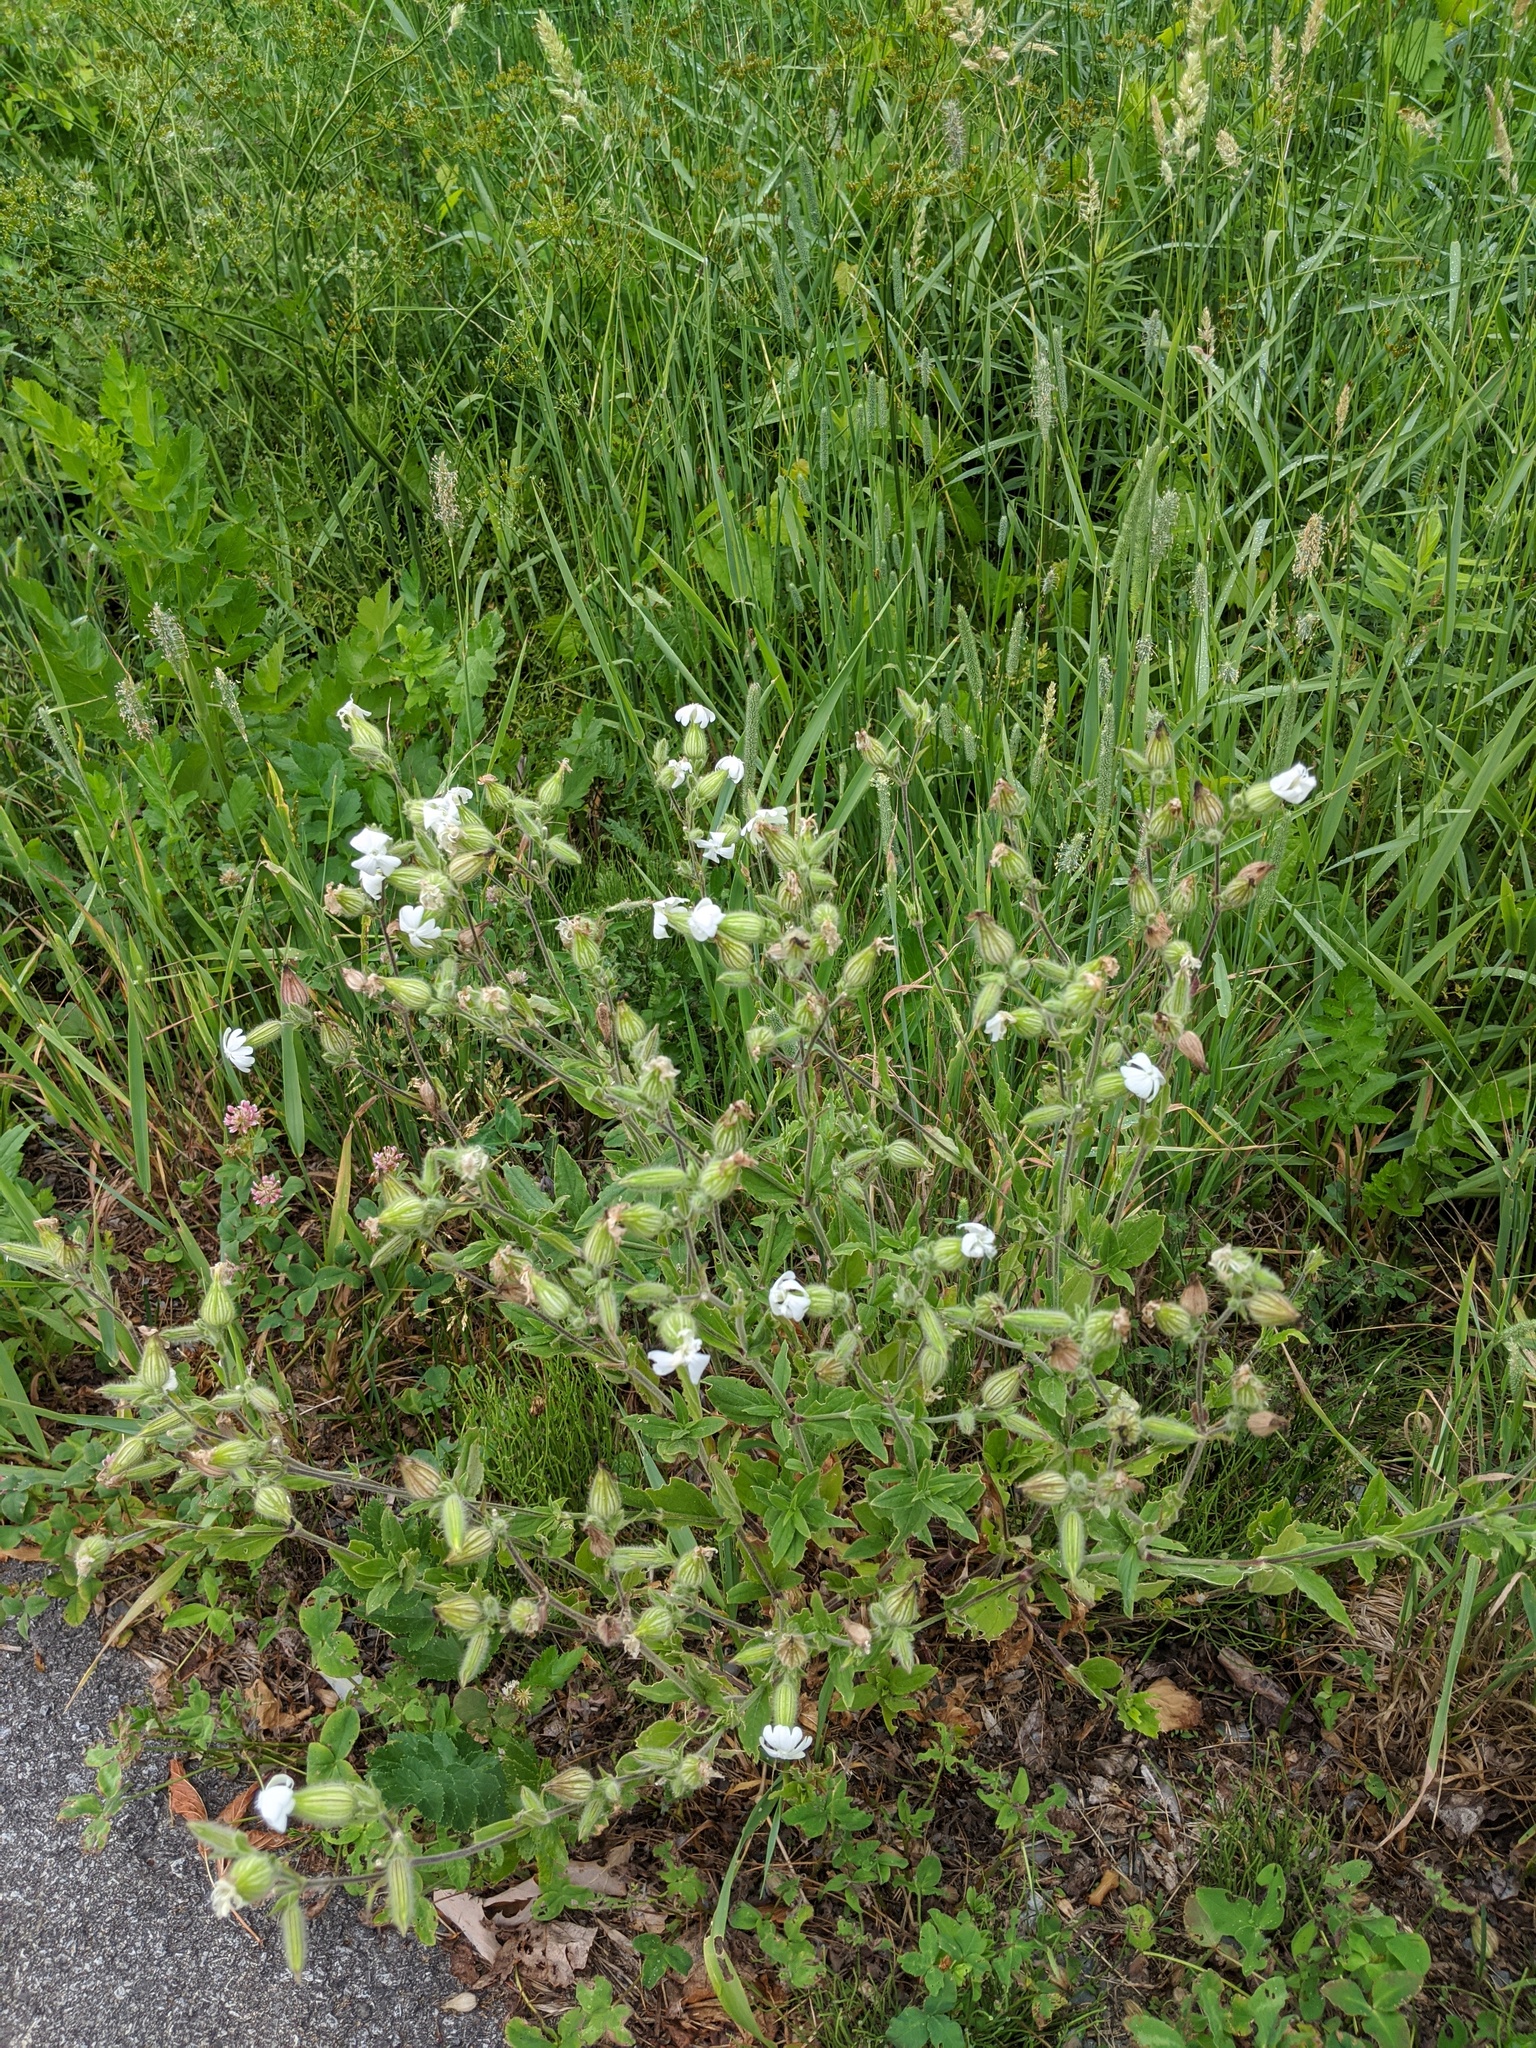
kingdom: Plantae
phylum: Tracheophyta
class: Magnoliopsida
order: Caryophyllales
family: Caryophyllaceae
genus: Silene
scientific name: Silene latifolia
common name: White campion
